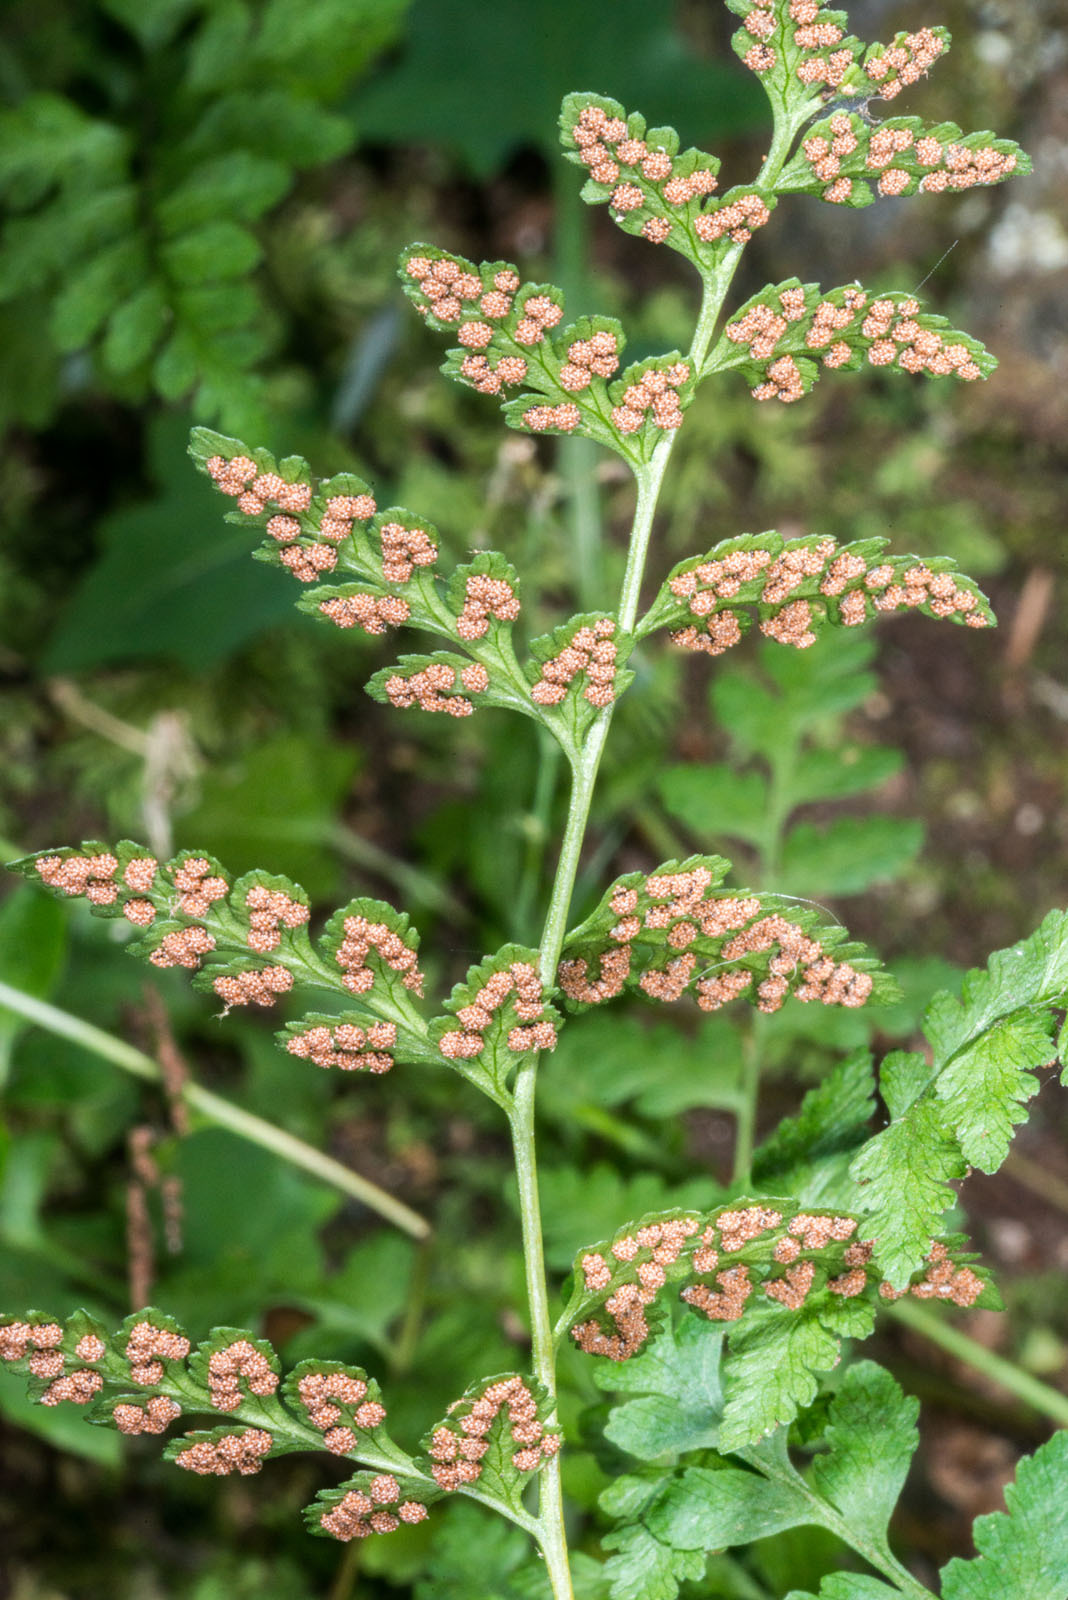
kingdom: Plantae
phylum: Tracheophyta
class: Polypodiopsida
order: Polypodiales
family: Cystopteridaceae
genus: Cystopteris
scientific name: Cystopteris tasmanica
